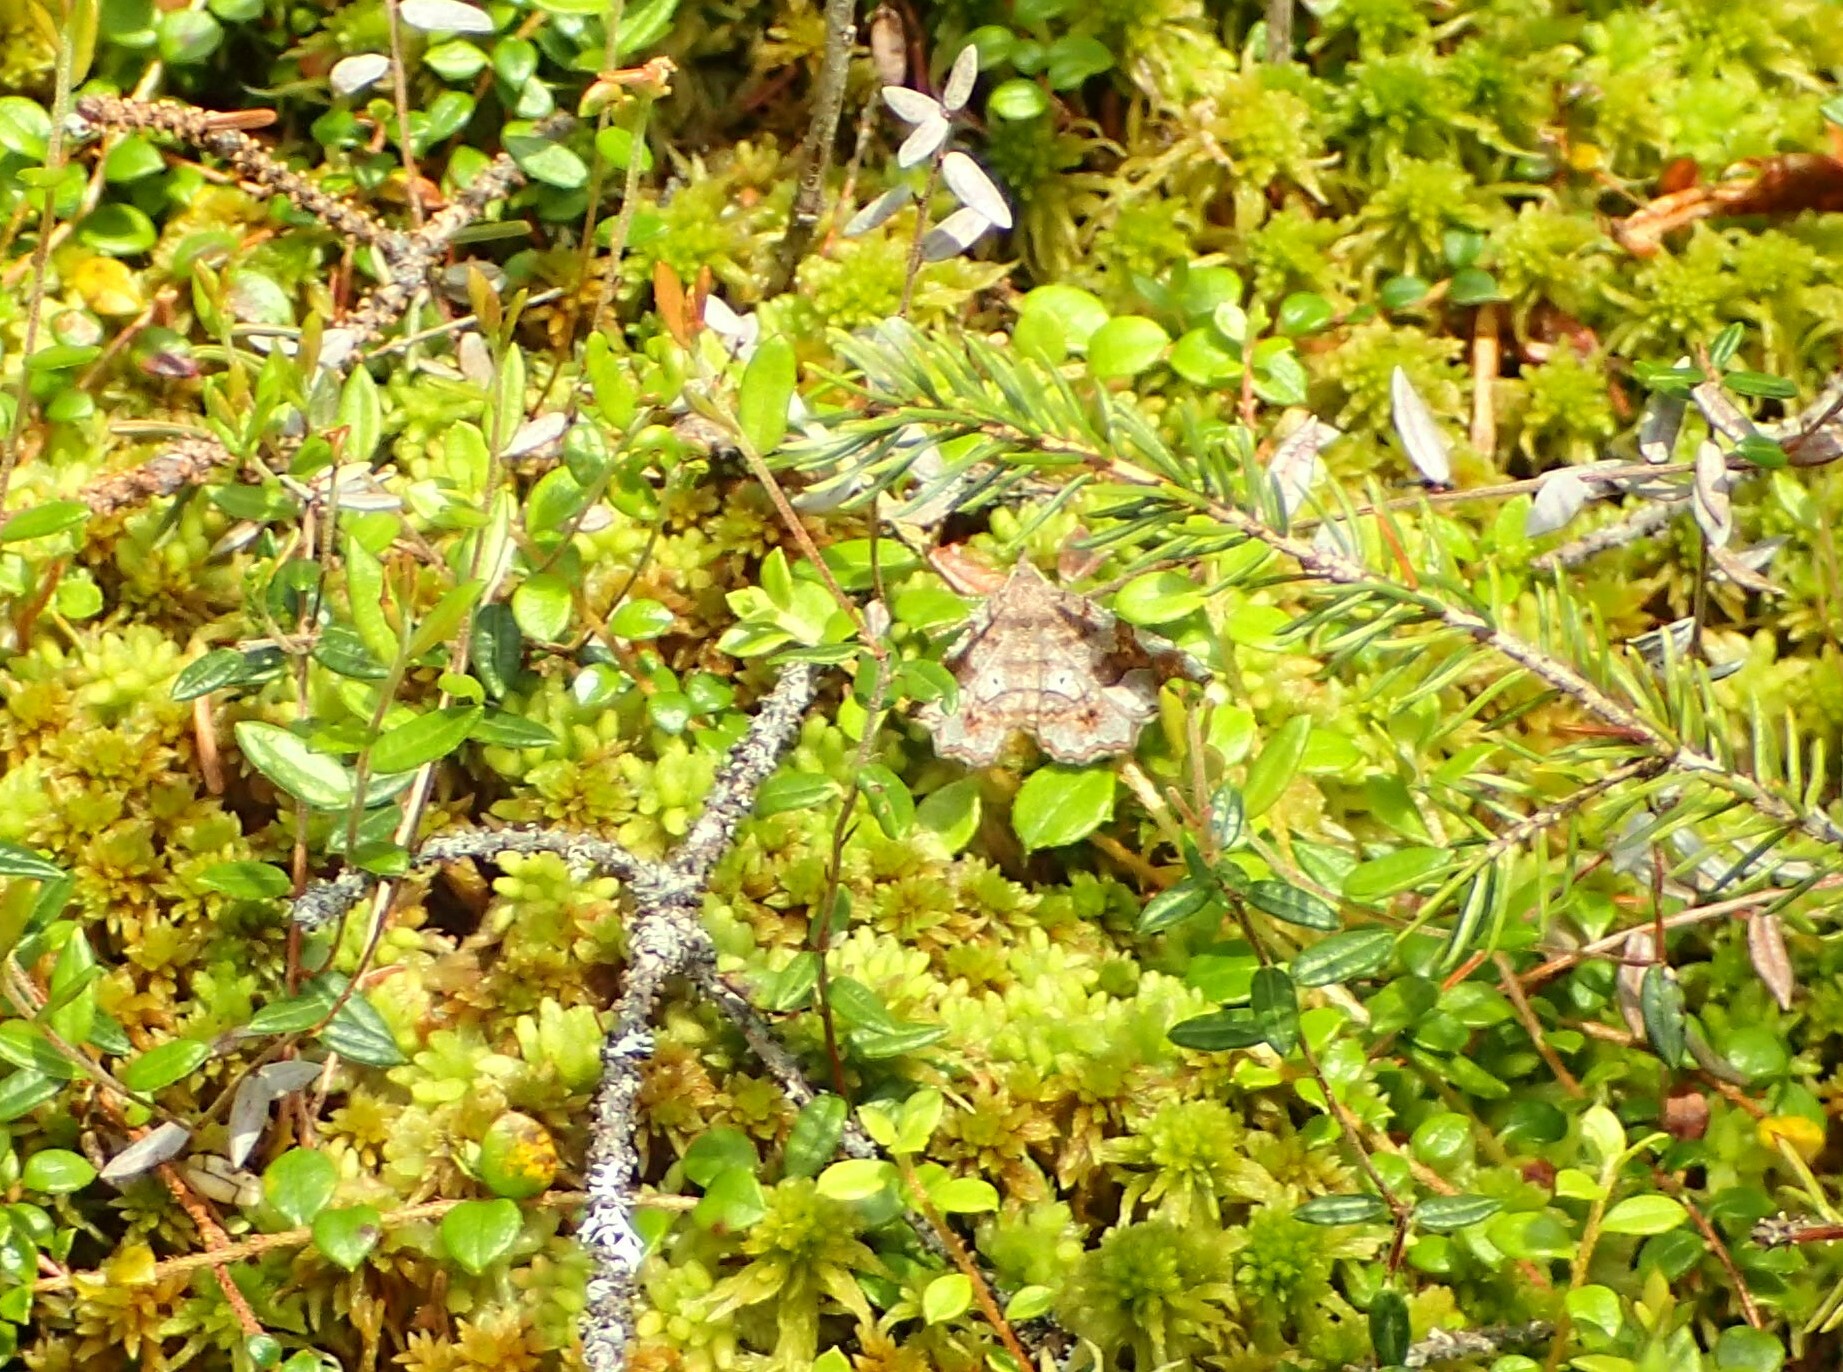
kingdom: Animalia
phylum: Arthropoda
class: Insecta
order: Lepidoptera
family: Erebidae
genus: Pangrapta
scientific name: Pangrapta decoralis
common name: Decorated owlet
